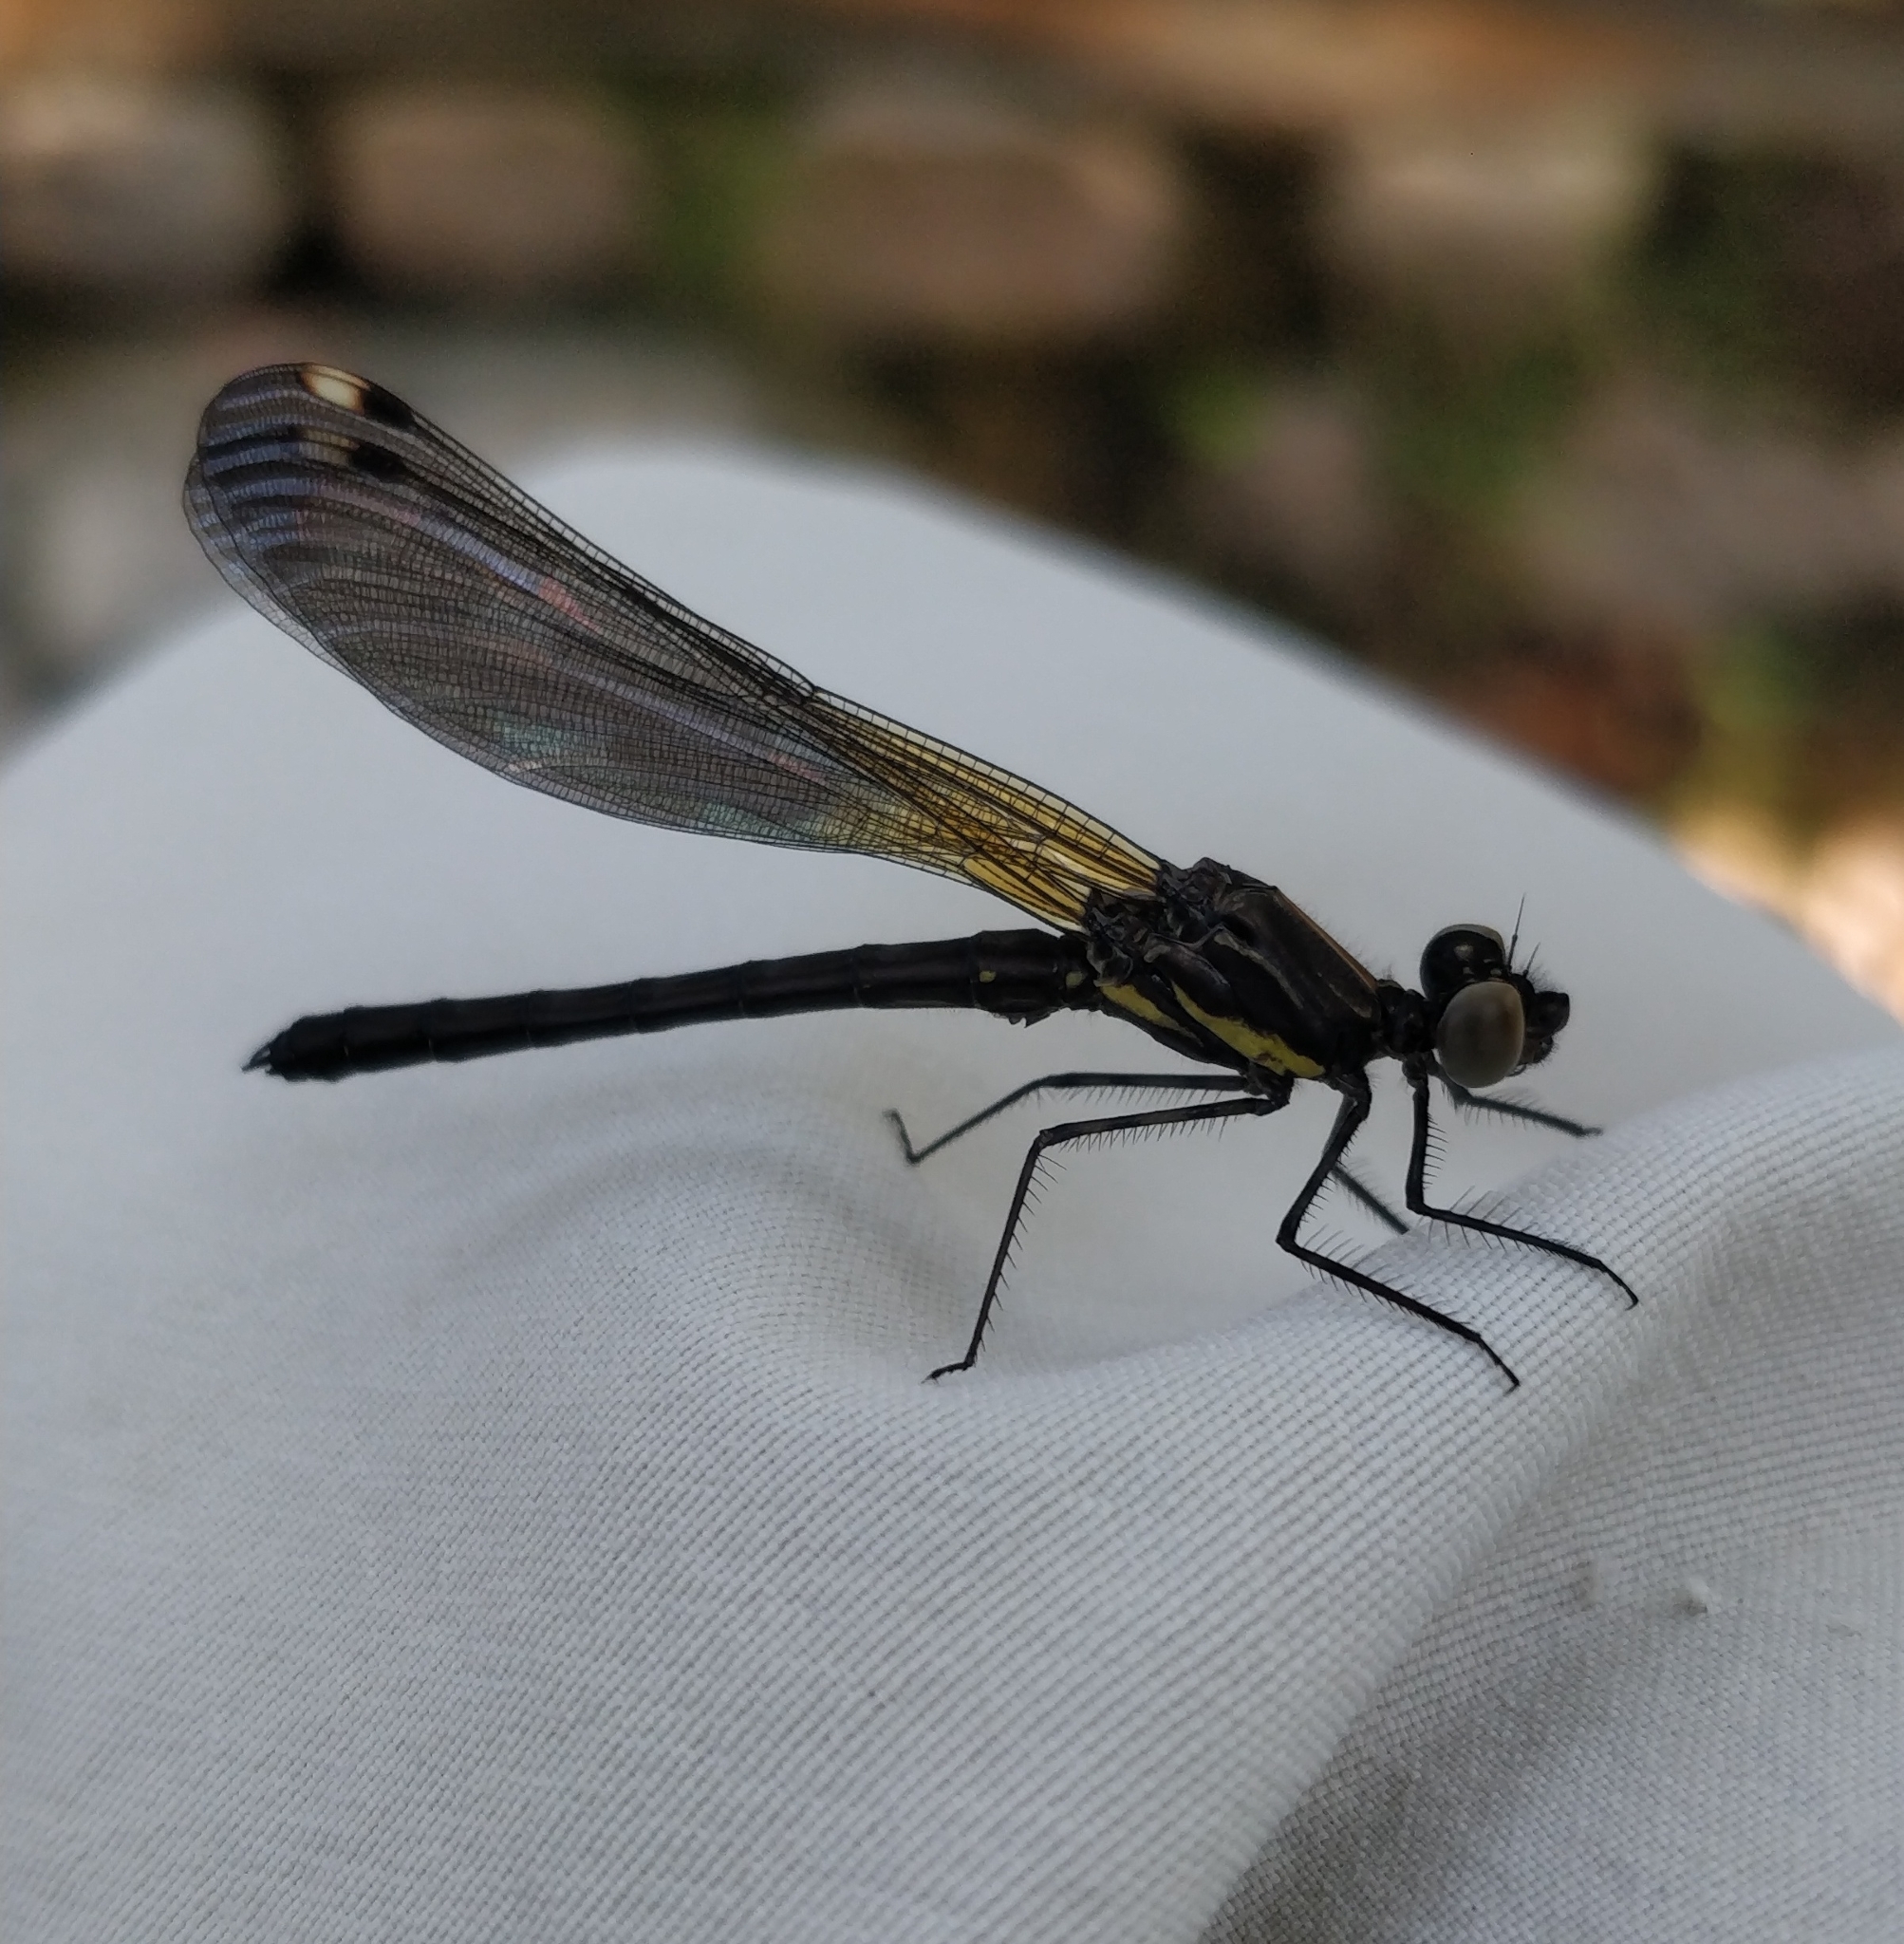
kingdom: Animalia
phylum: Arthropoda
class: Insecta
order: Odonata
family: Chlorocyphidae
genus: Aristocypha
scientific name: Aristocypha quadrimaculata
